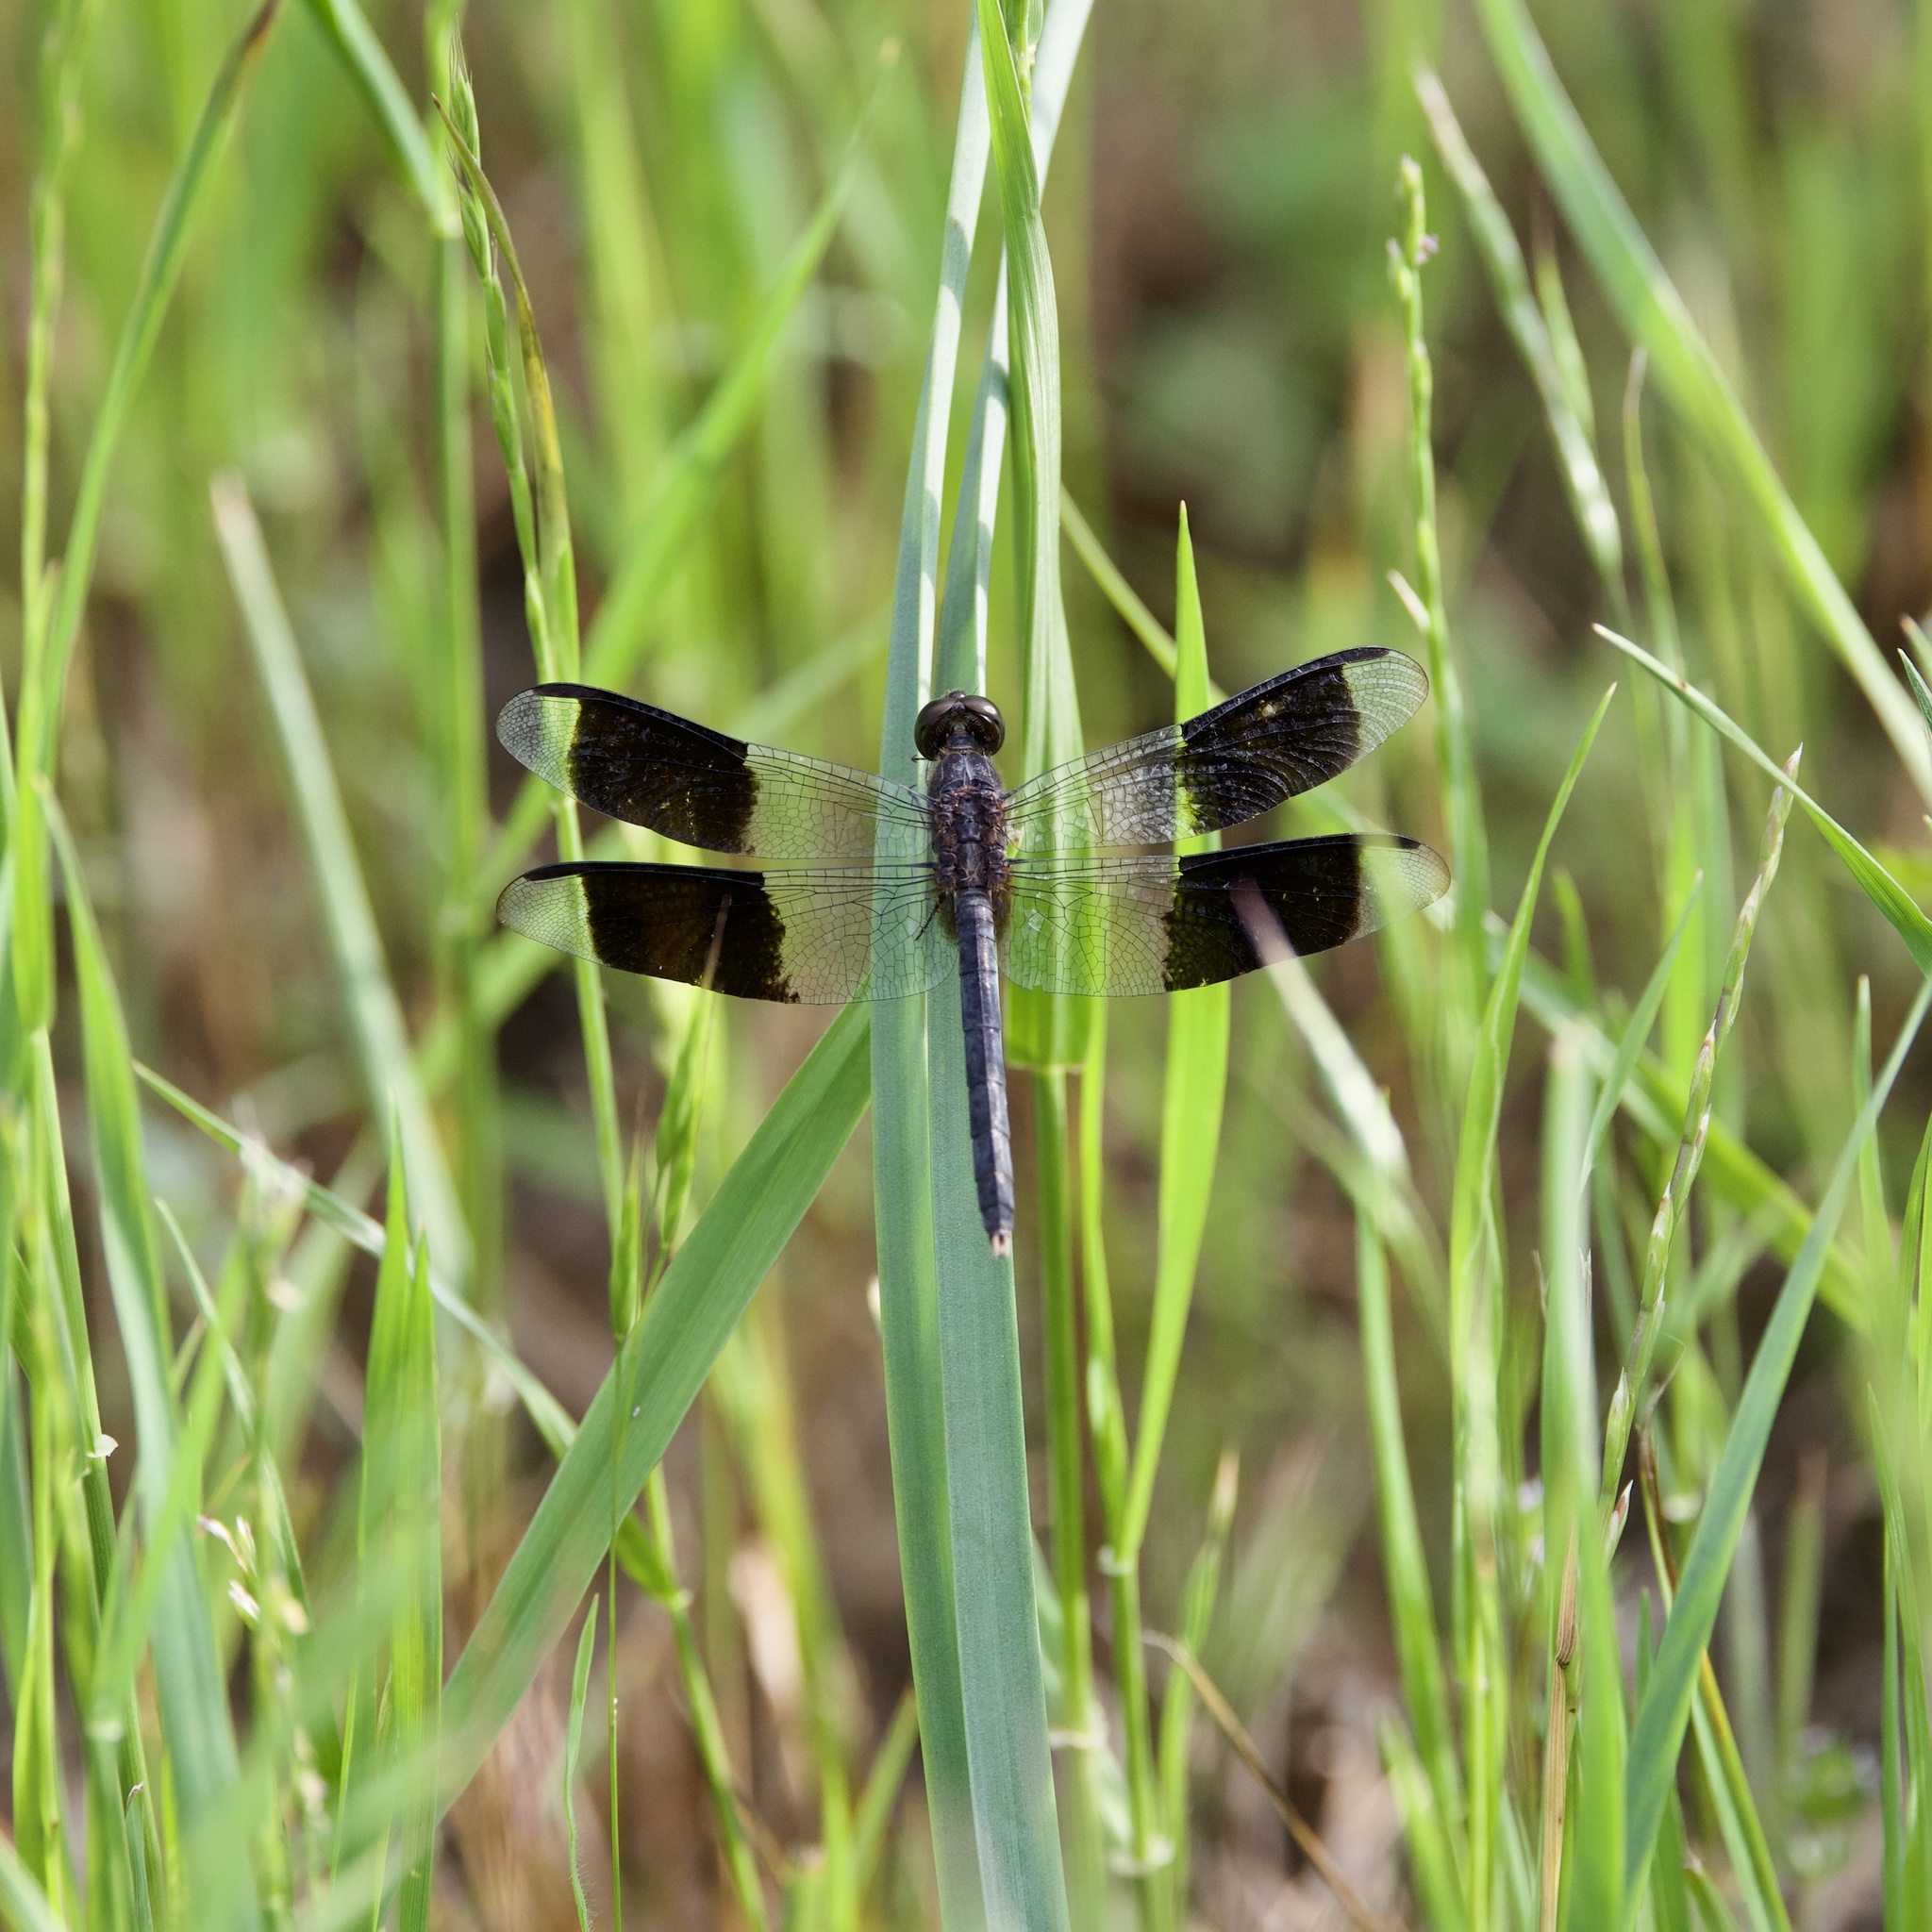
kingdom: Animalia
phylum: Arthropoda
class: Insecta
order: Odonata
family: Libellulidae
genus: Erythrodiplax
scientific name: Erythrodiplax umbrata
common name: Band-winged dragonlet
